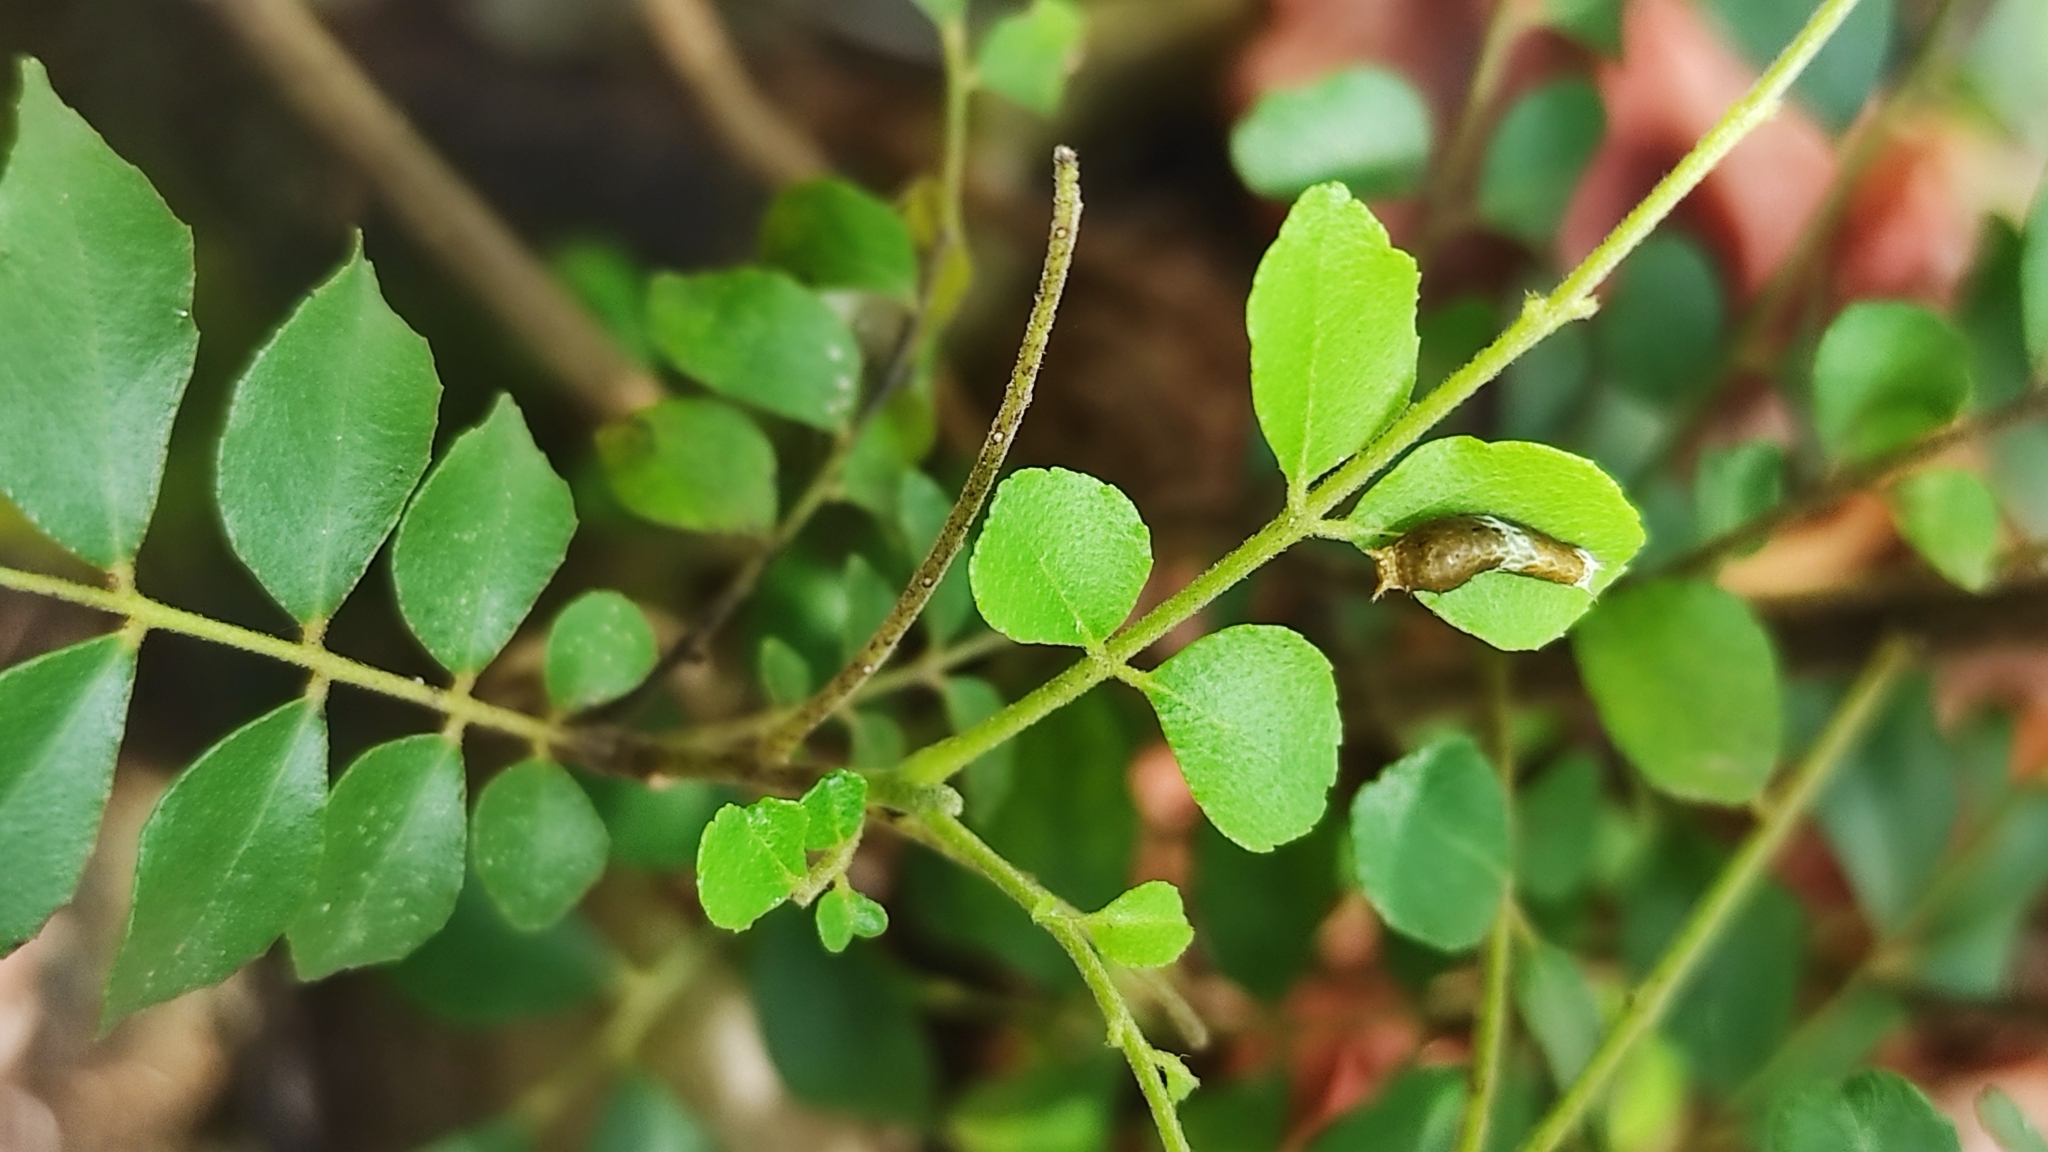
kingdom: Animalia
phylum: Arthropoda
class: Insecta
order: Lepidoptera
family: Papilionidae
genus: Papilio
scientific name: Papilio polytes
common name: Common mormon
